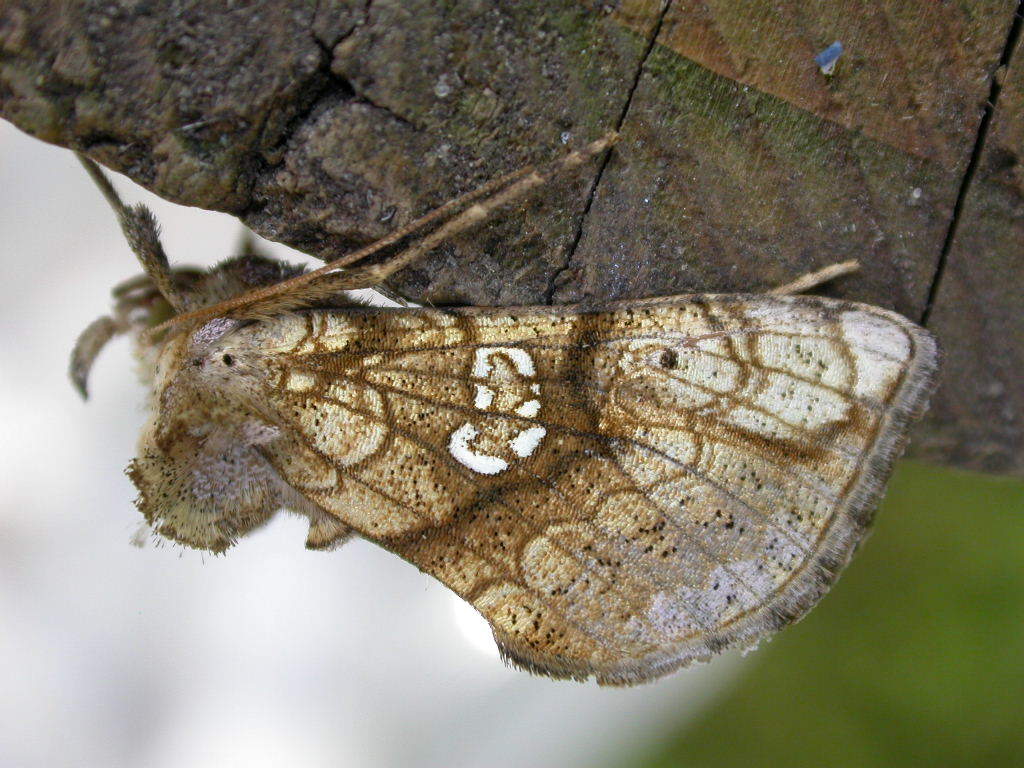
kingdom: Animalia
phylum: Arthropoda
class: Insecta
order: Lepidoptera
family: Noctuidae
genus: Polychrysia
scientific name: Polychrysia moneta
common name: Golden plusia
